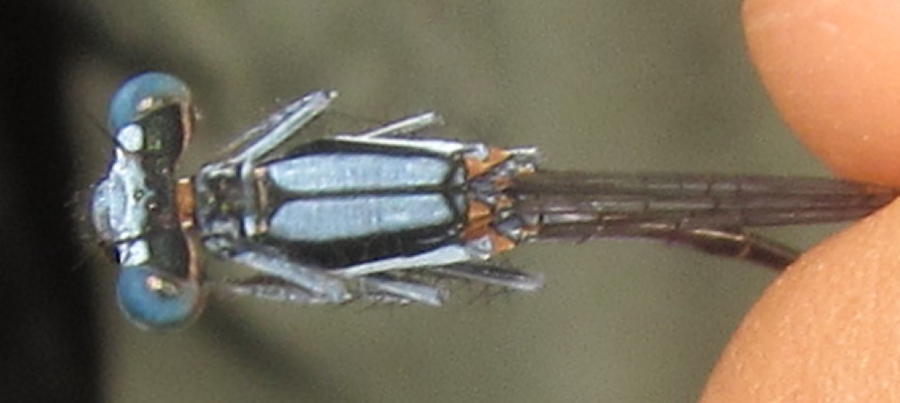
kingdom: Animalia
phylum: Arthropoda
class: Insecta
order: Odonata
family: Platycnemididae
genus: Elattoneura
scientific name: Elattoneura glauca
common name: Common threadtail
